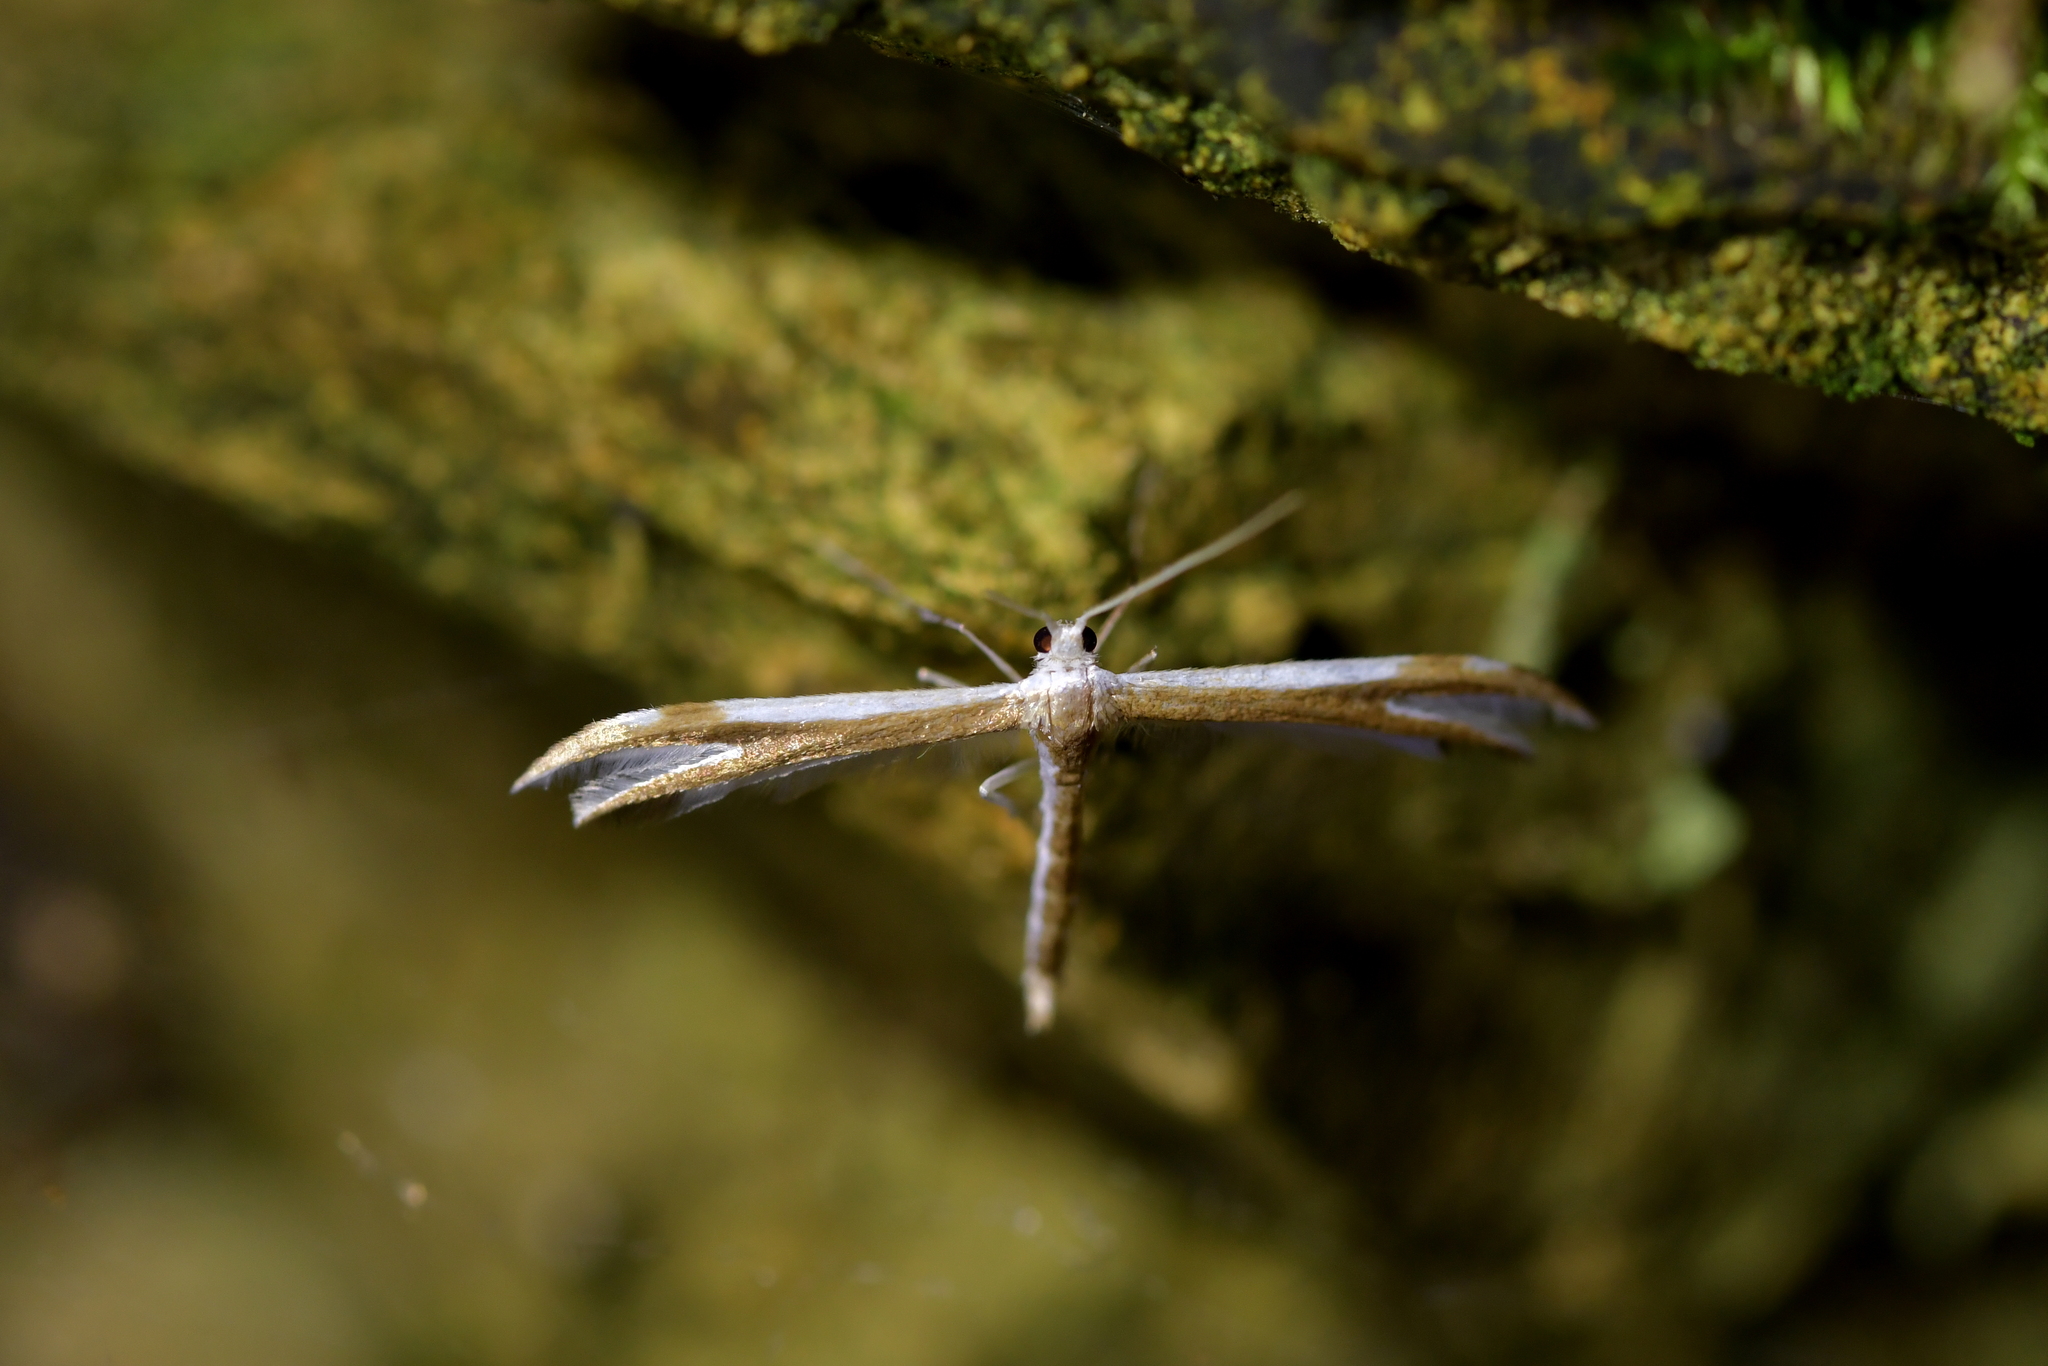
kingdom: Animalia
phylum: Arthropoda
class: Insecta
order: Lepidoptera
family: Pterophoridae
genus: Pterophorus
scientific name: Pterophorus furcatalis
